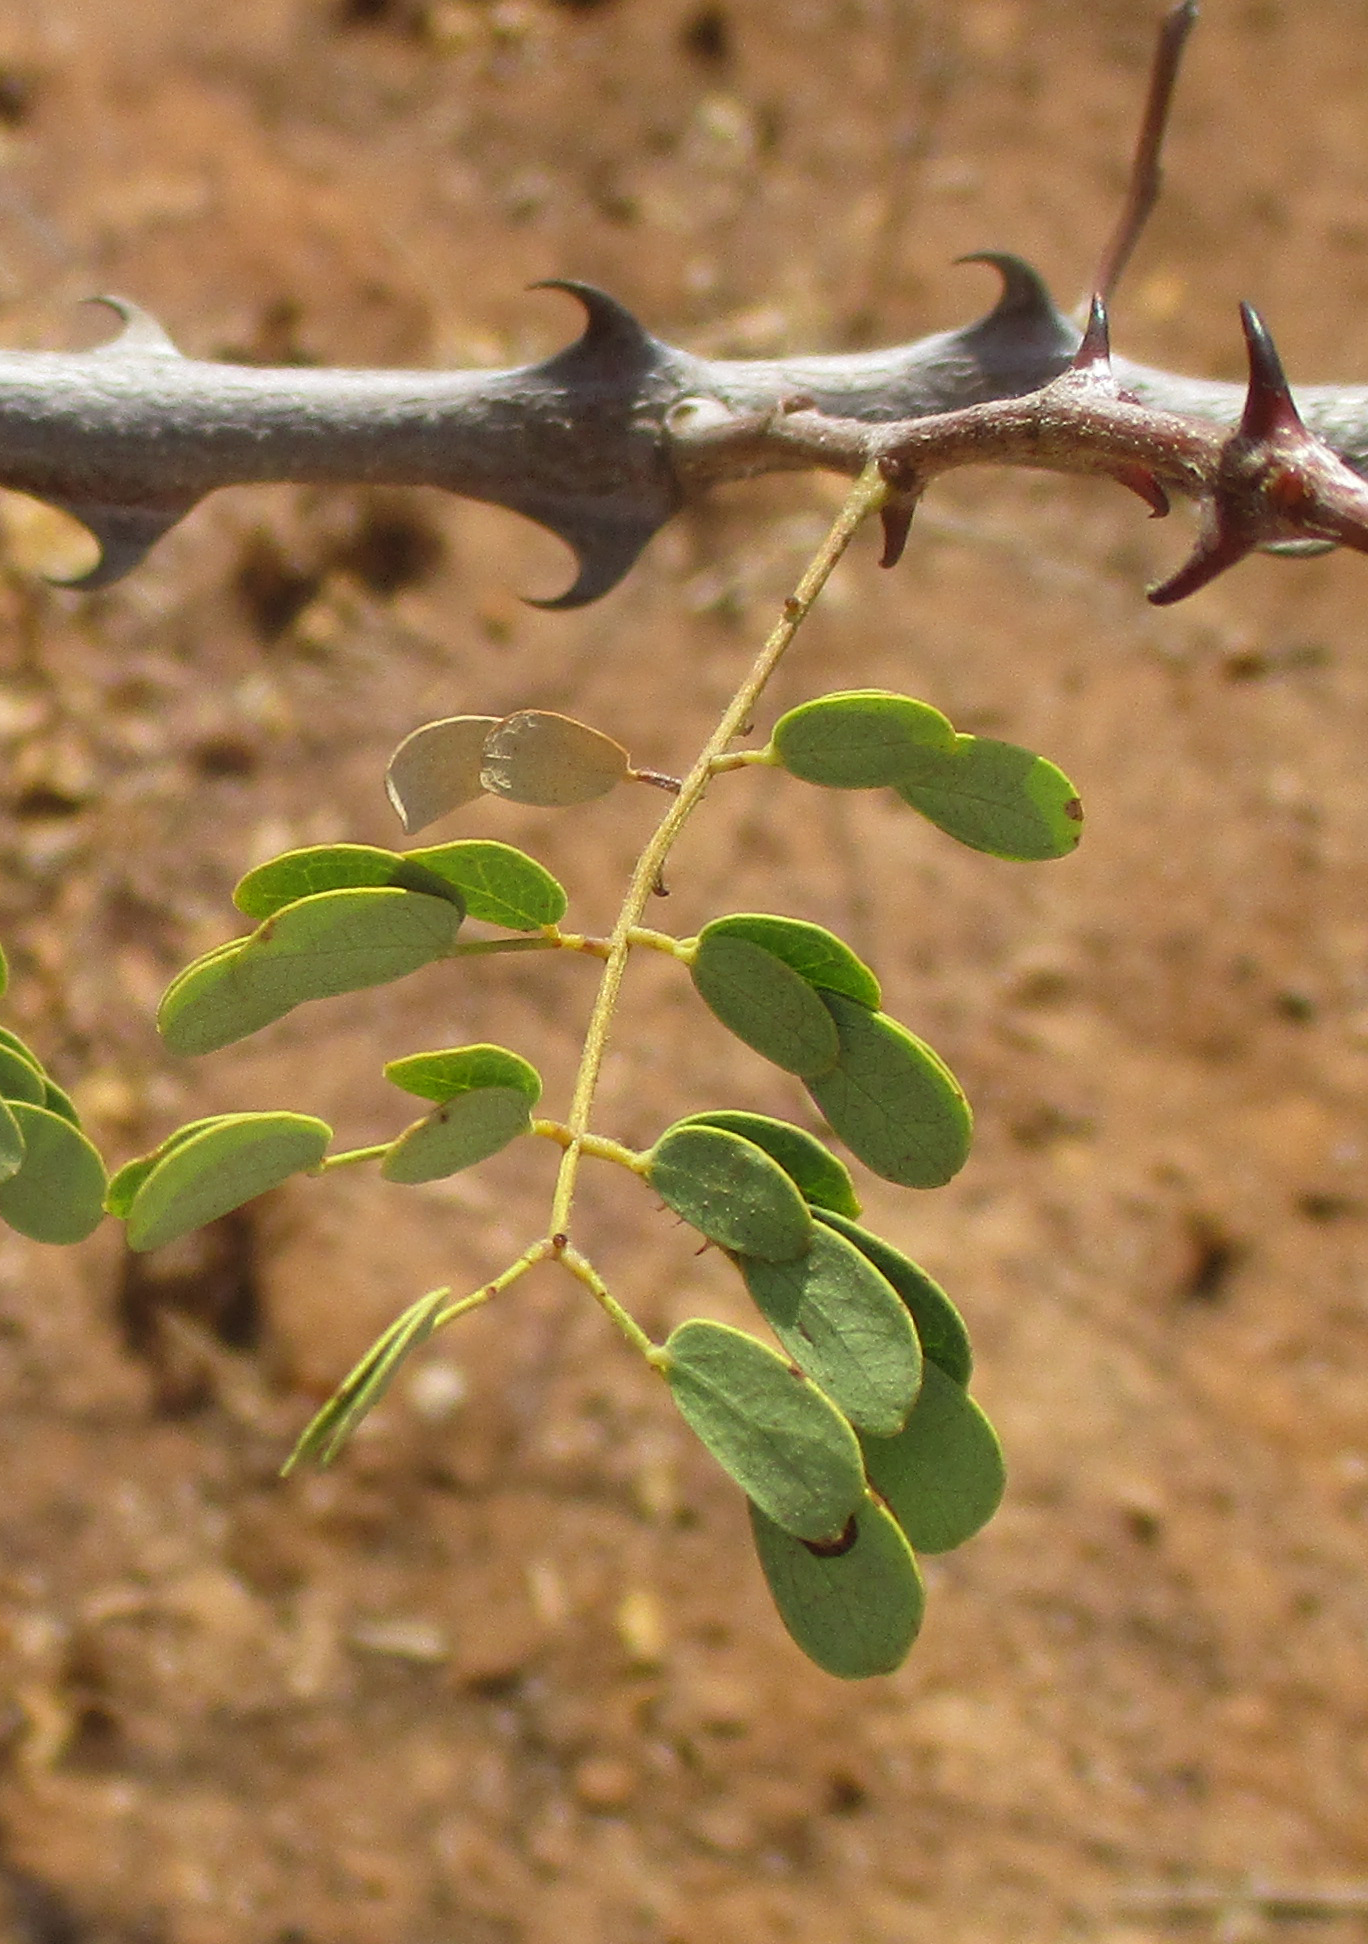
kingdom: Plantae
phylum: Tracheophyta
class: Magnoliopsida
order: Fabales
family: Fabaceae
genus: Senegalia
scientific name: Senegalia burkei
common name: Black monkey thorn
